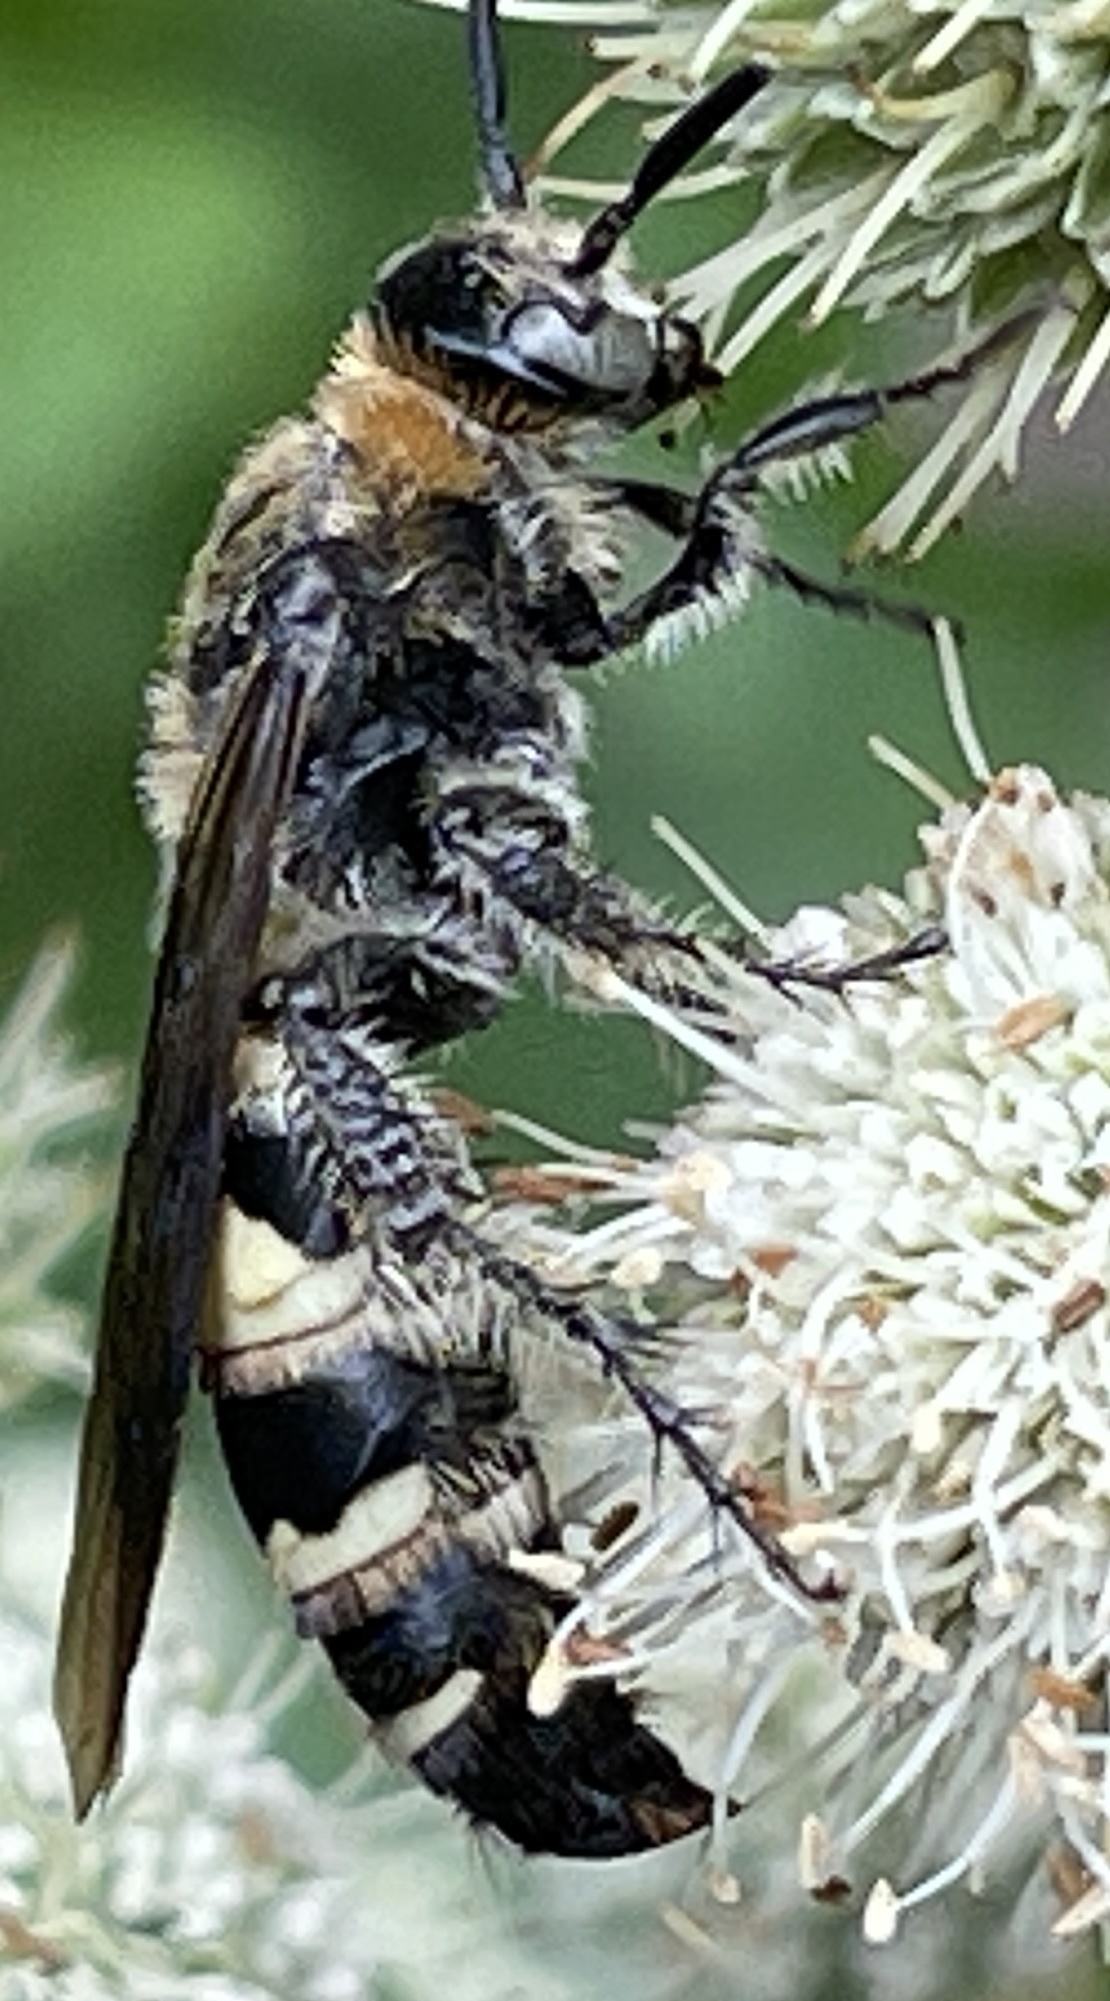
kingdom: Animalia
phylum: Arthropoda
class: Insecta
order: Hymenoptera
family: Scoliidae
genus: Dielis
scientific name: Dielis
